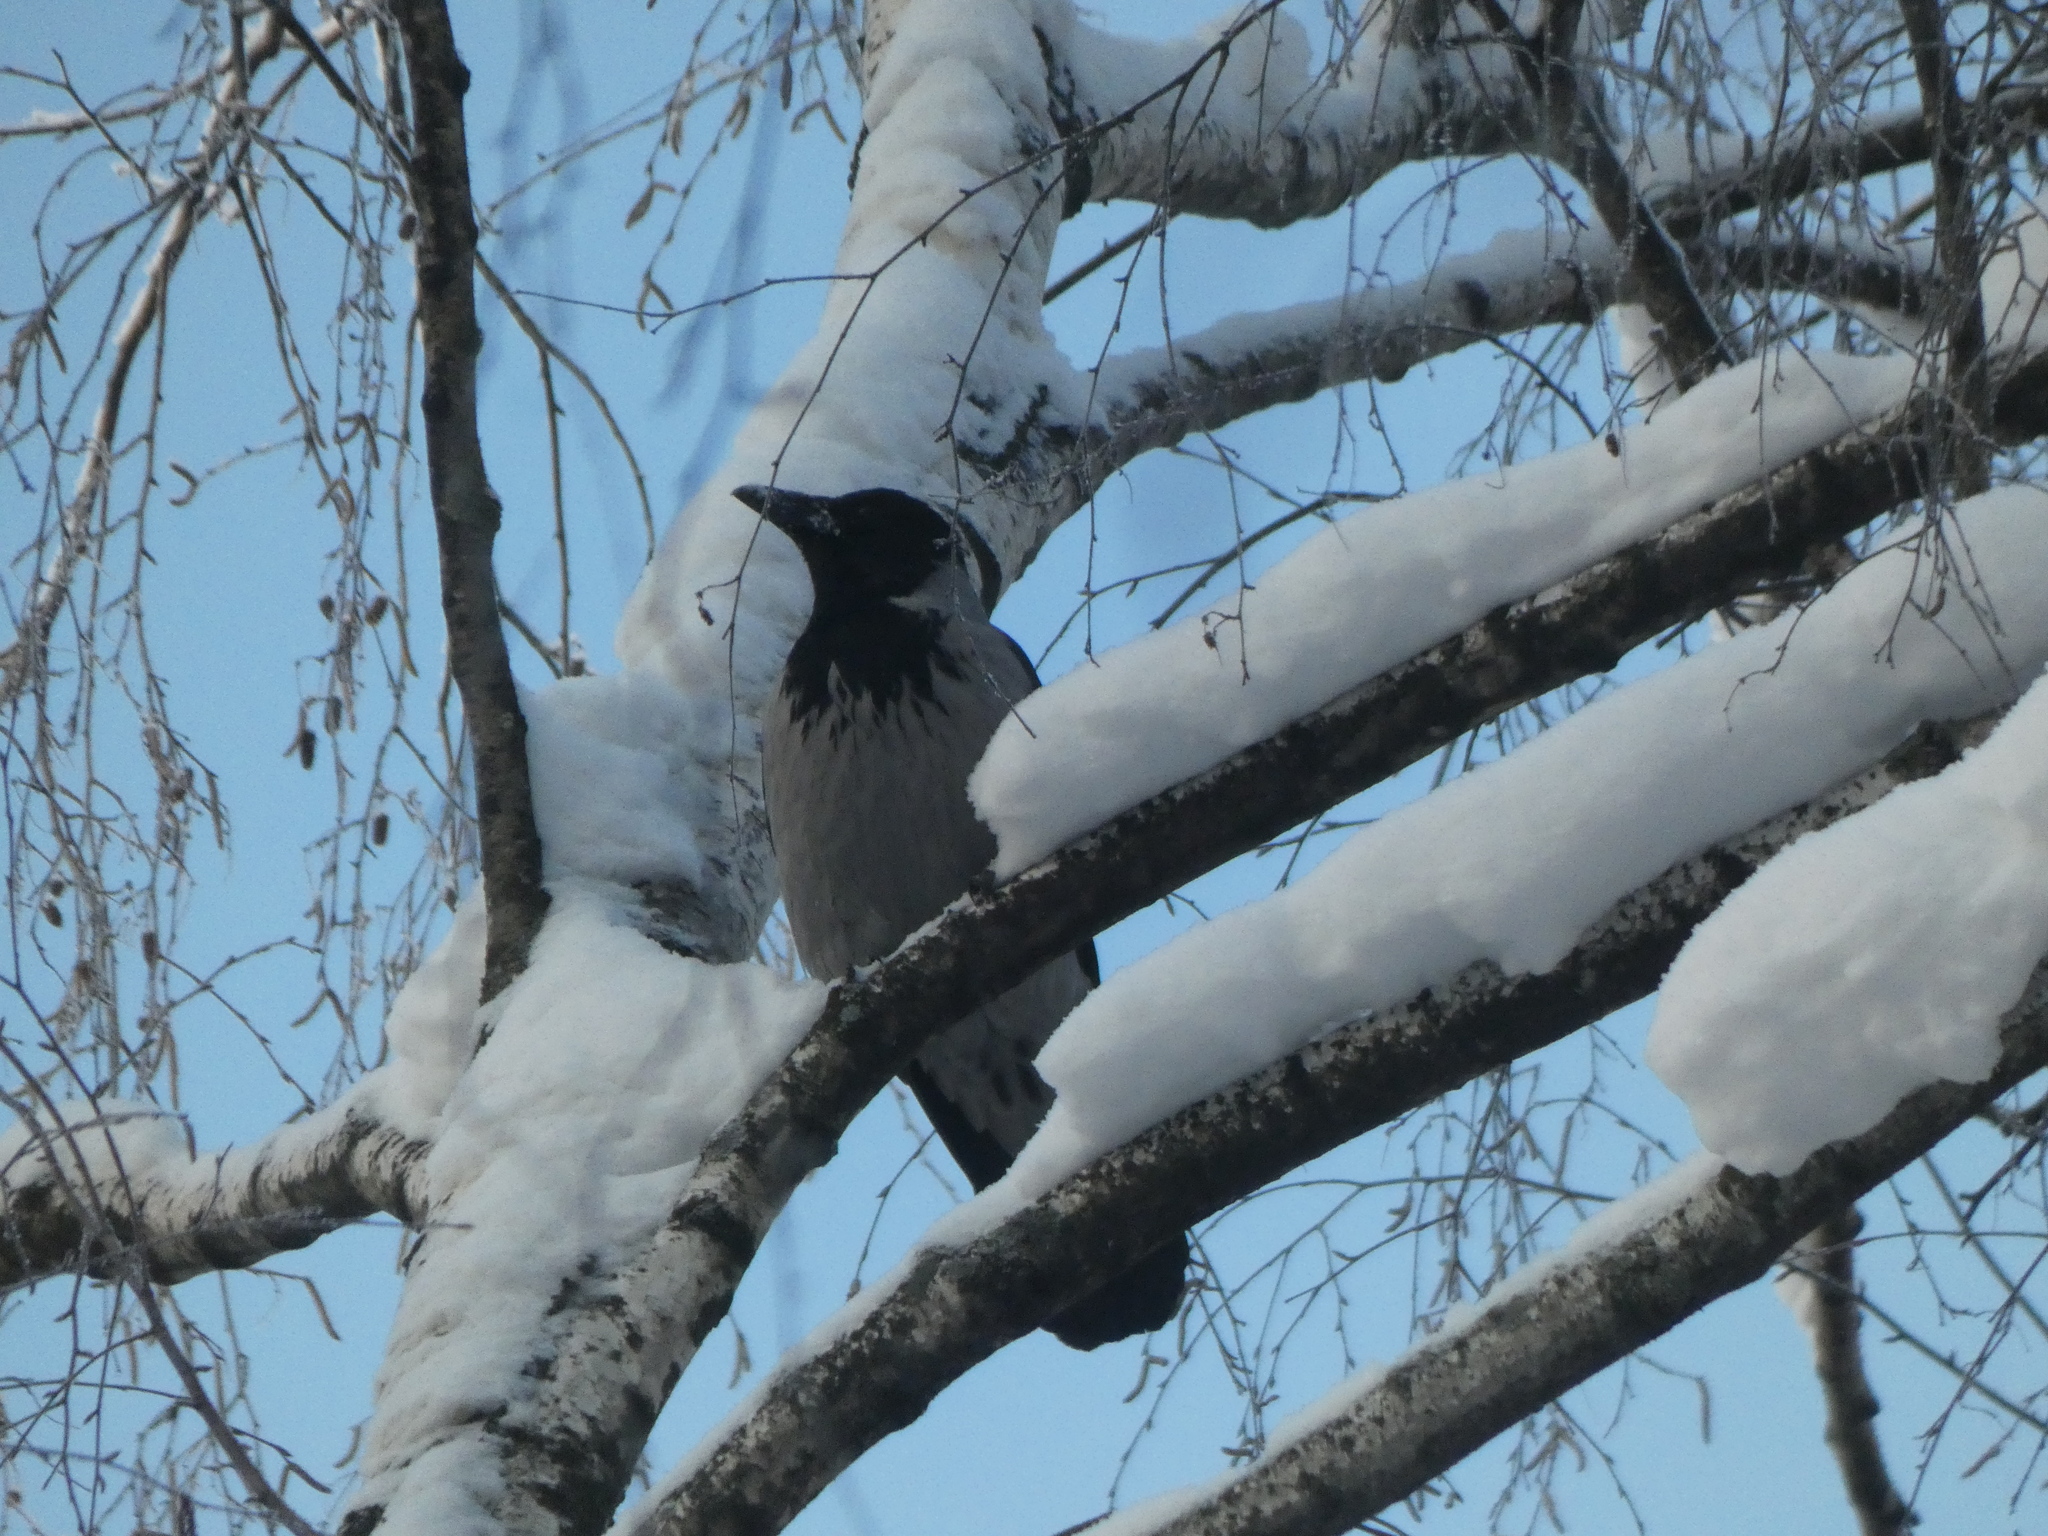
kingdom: Animalia
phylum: Chordata
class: Aves
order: Passeriformes
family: Corvidae
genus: Corvus
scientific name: Corvus cornix
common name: Hooded crow
